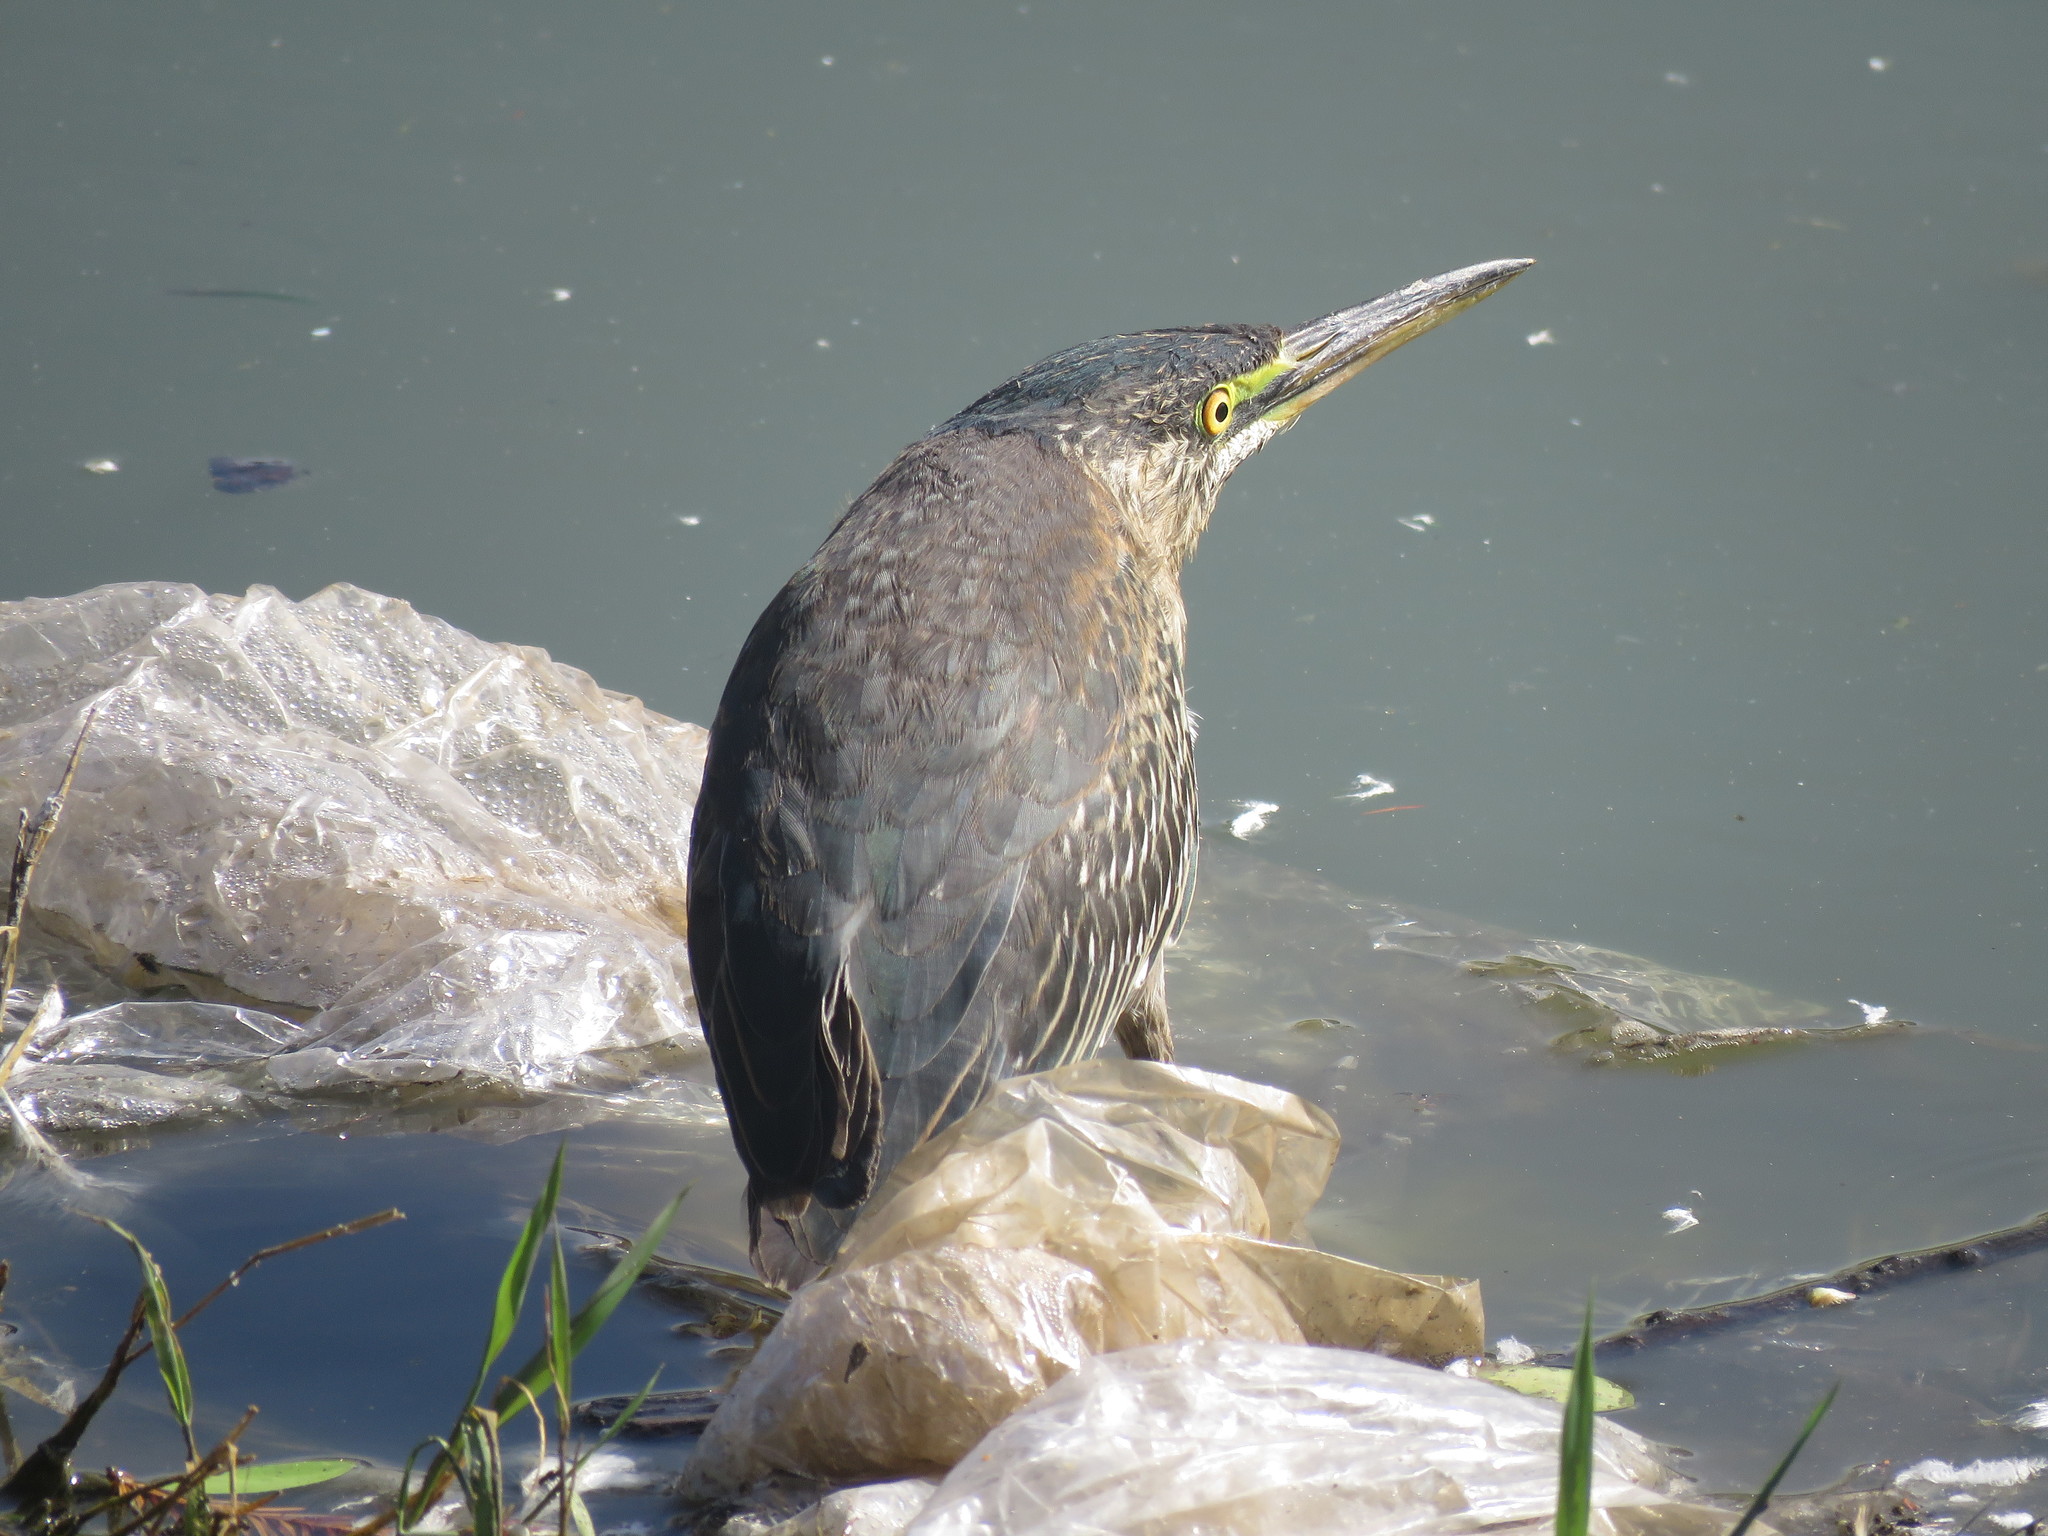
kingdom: Animalia
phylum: Chordata
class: Aves
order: Pelecaniformes
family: Ardeidae
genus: Butorides
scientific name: Butorides striata
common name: Striated heron
